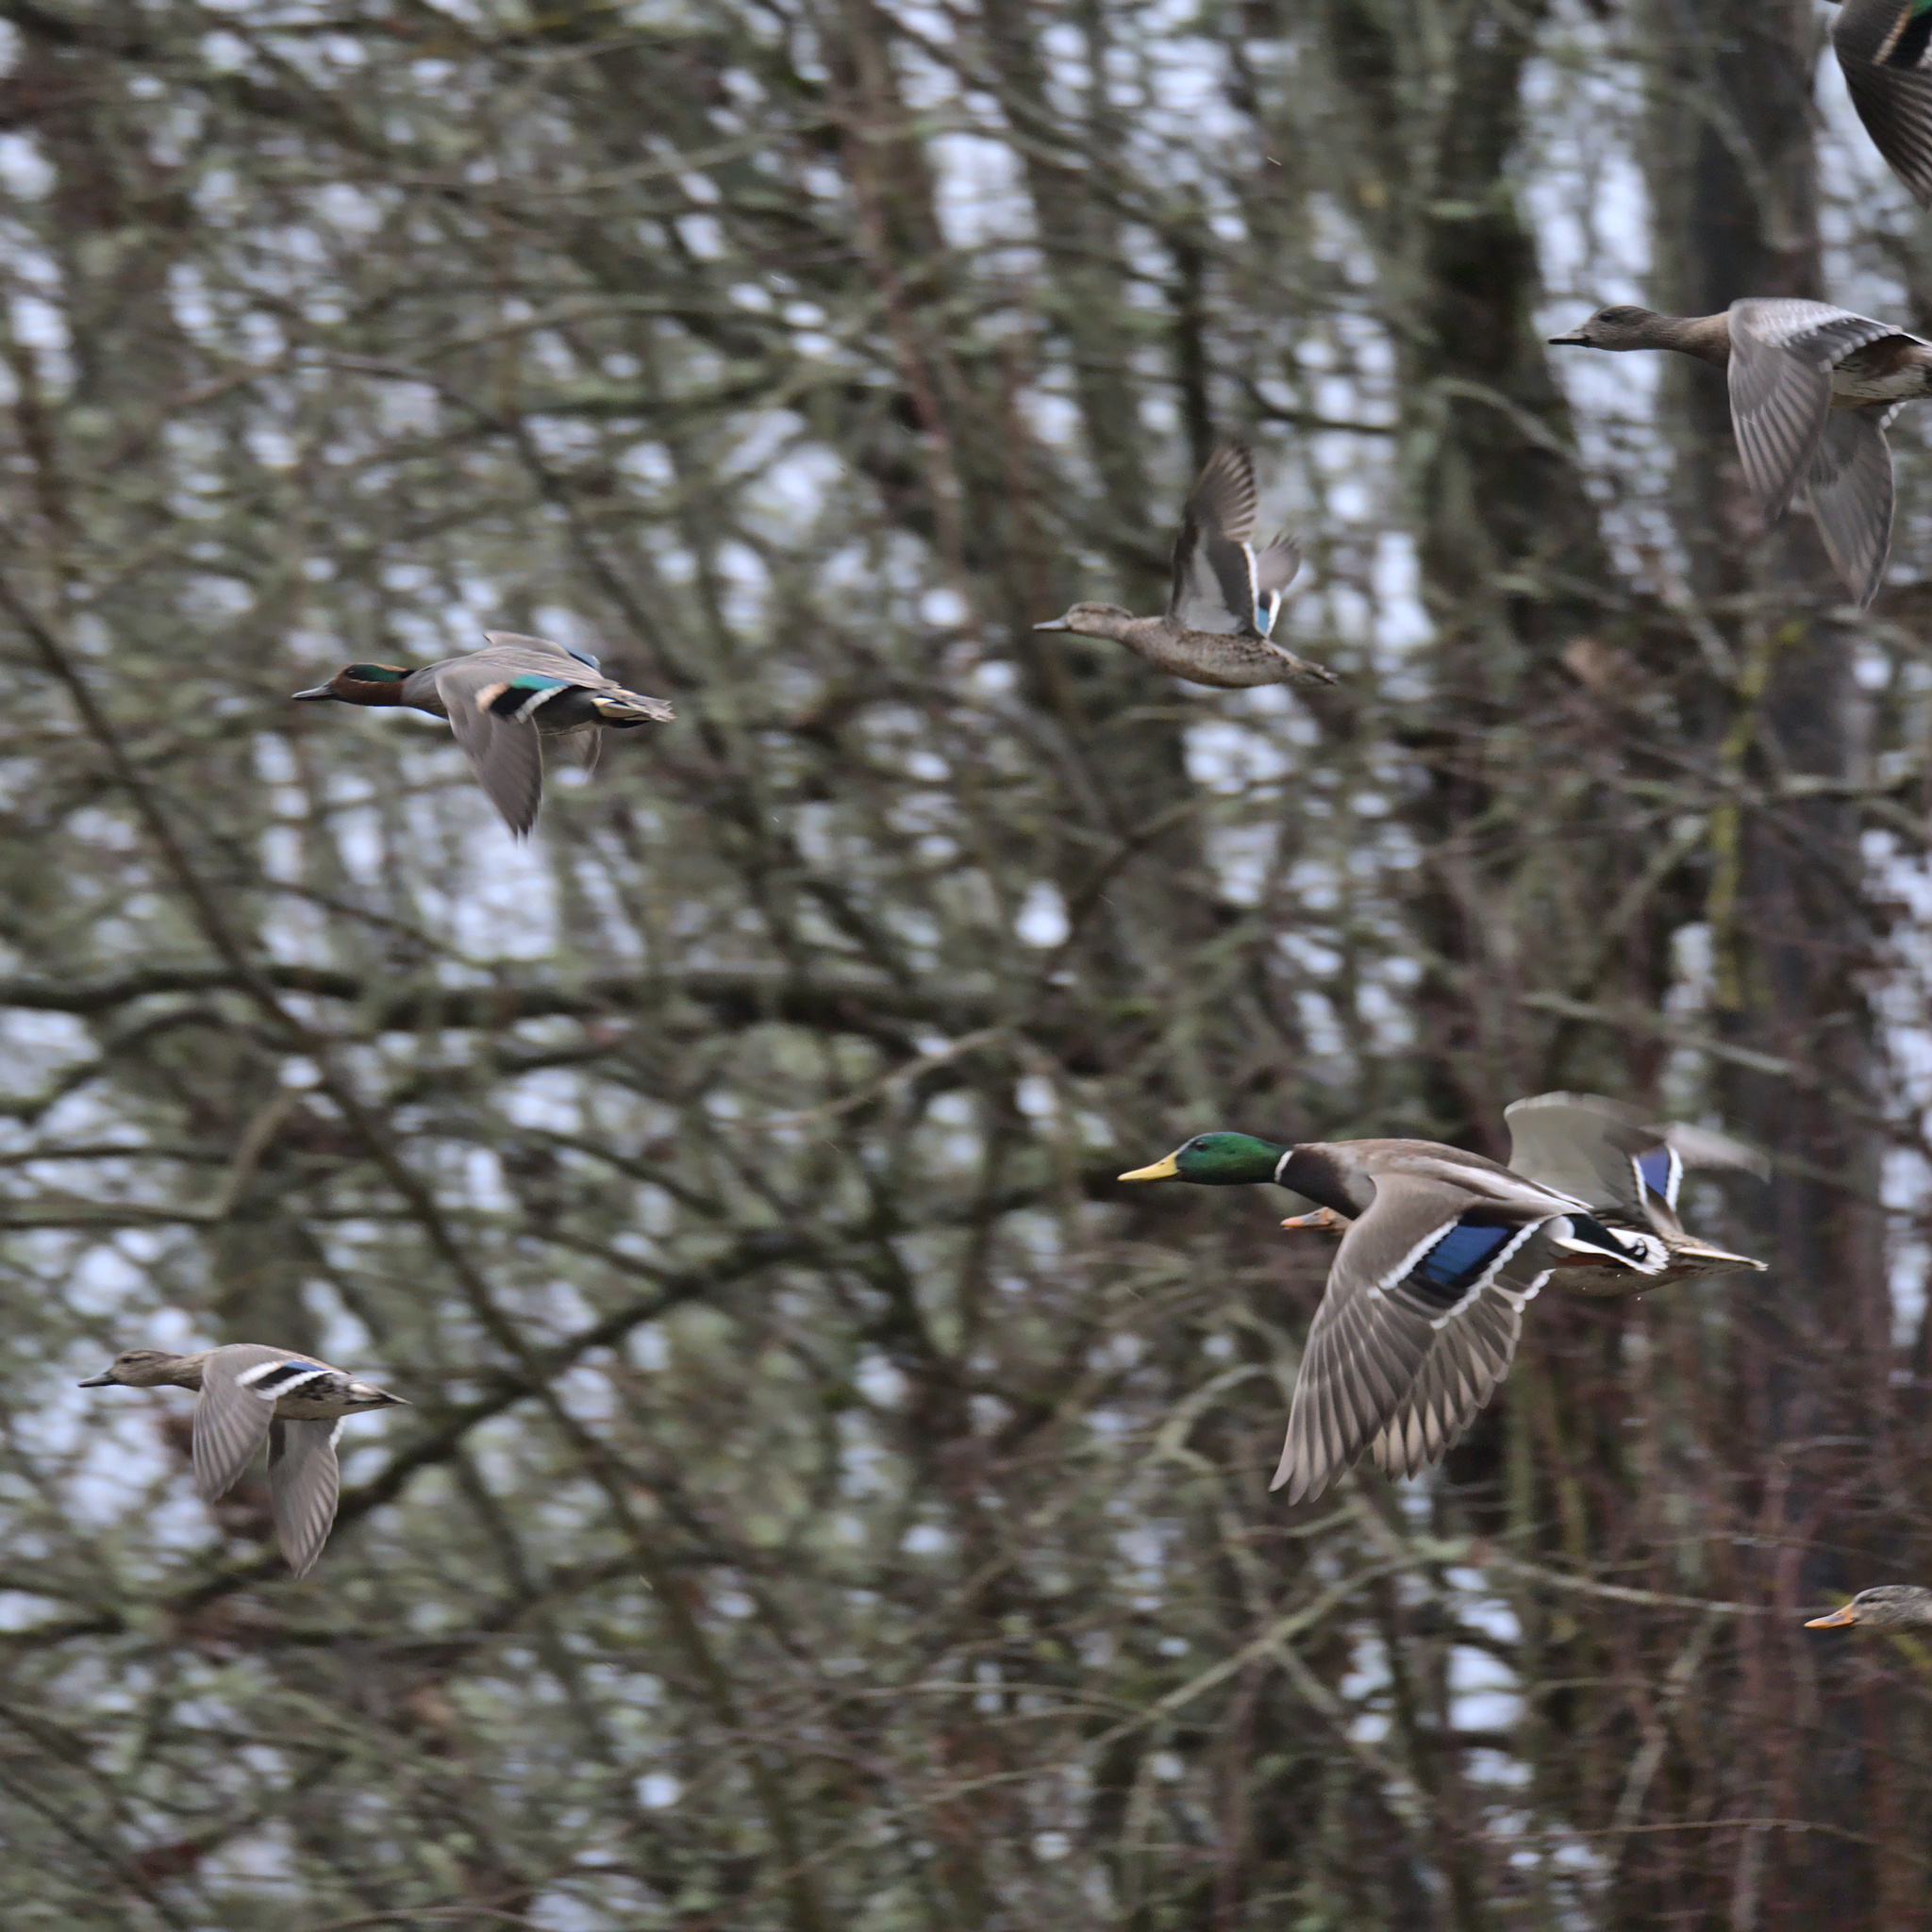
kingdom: Animalia
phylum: Chordata
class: Aves
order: Anseriformes
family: Anatidae
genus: Anas
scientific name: Anas platyrhynchos
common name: Mallard
